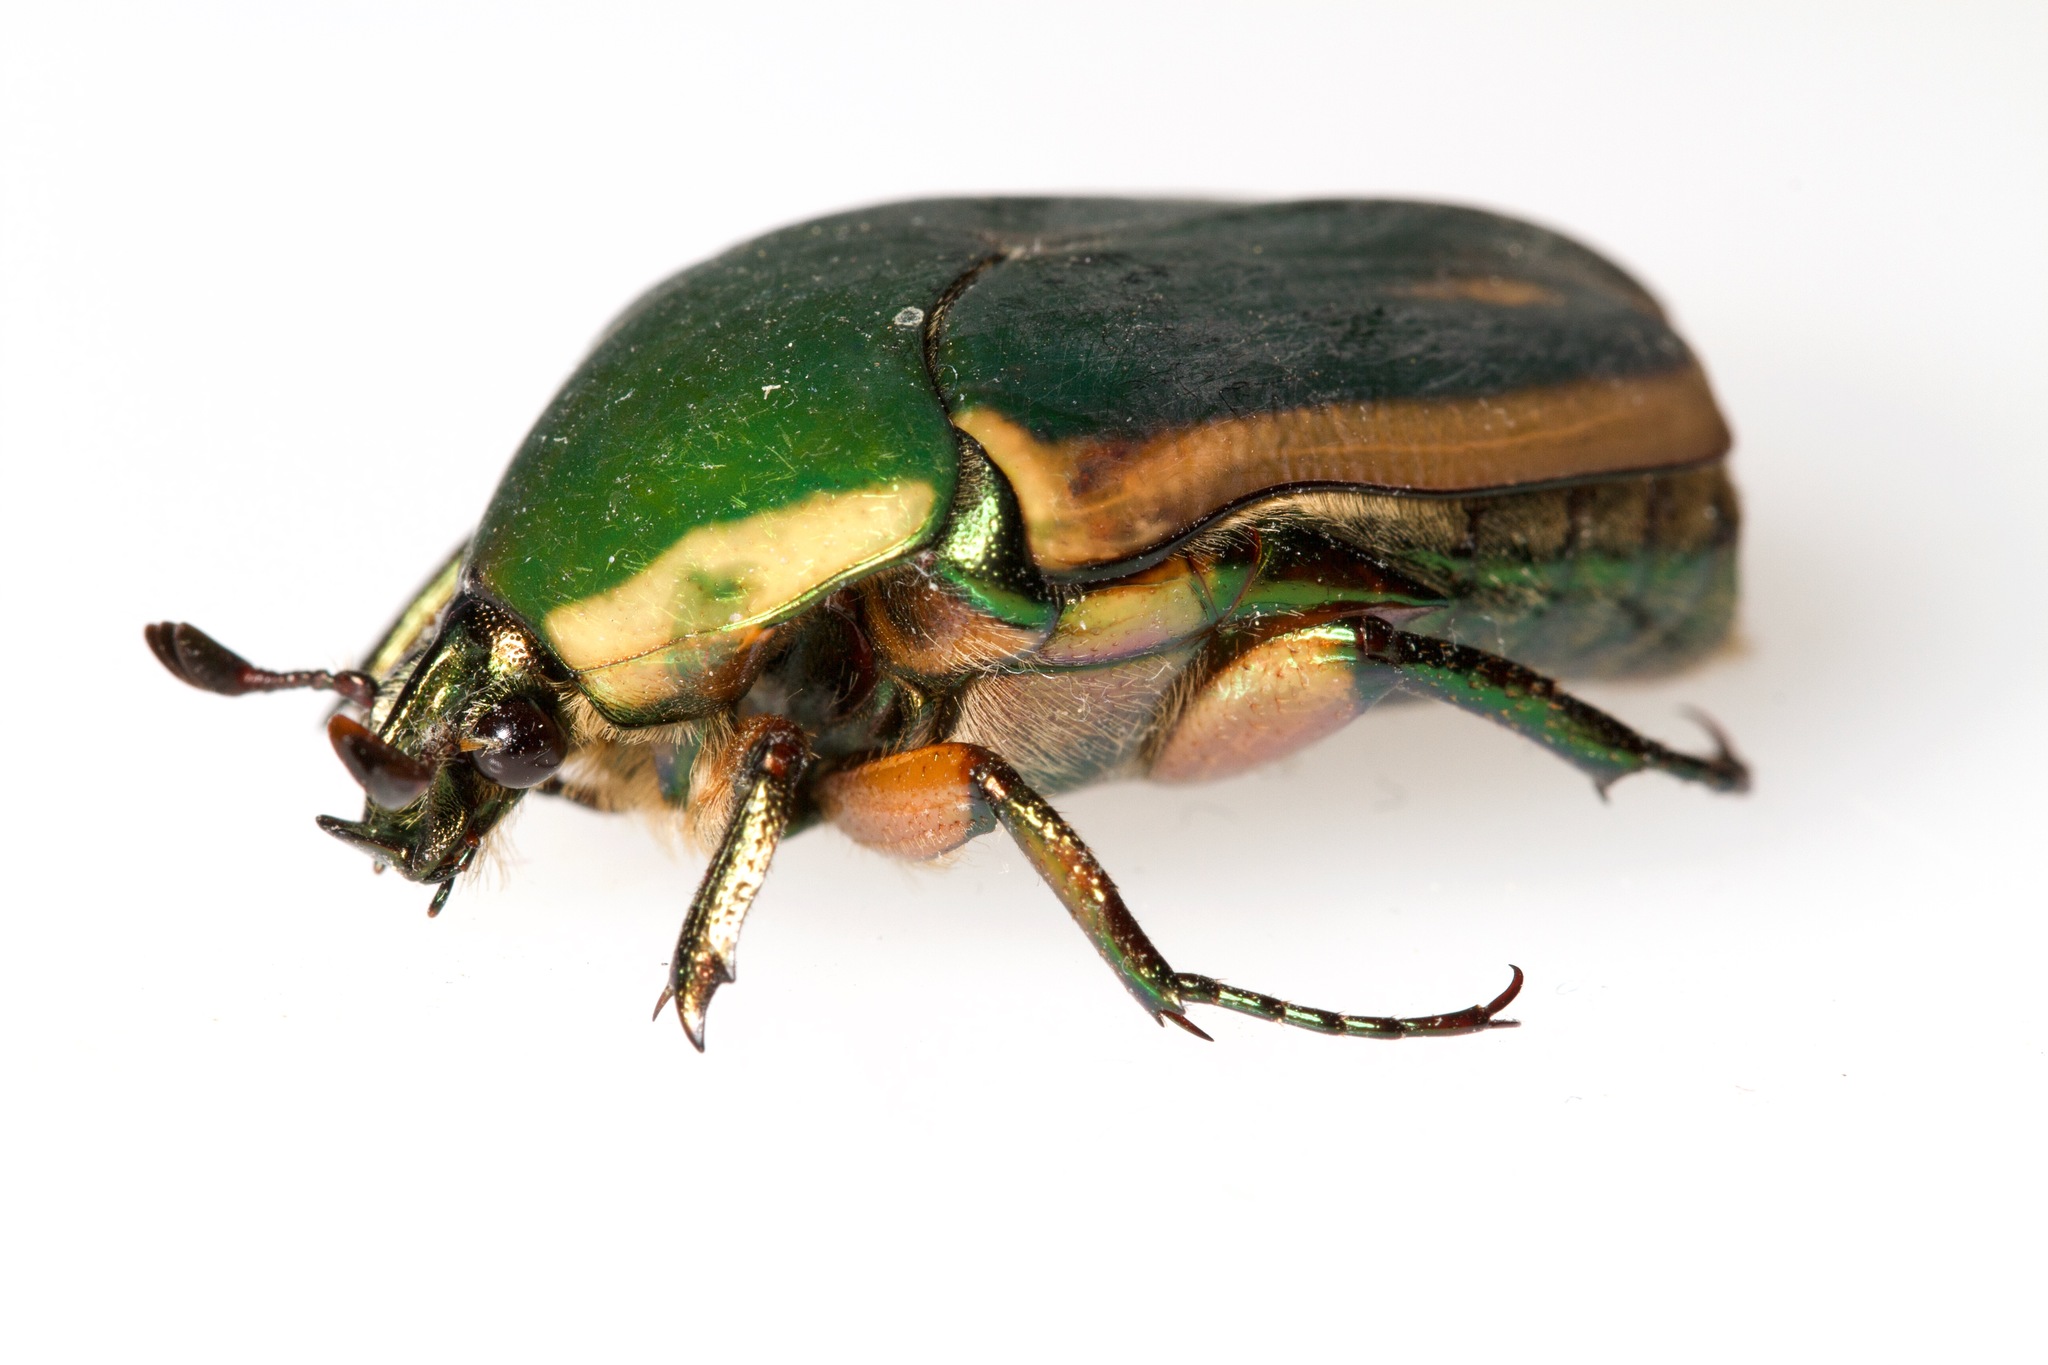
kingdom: Animalia
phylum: Arthropoda
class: Insecta
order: Coleoptera
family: Scarabaeidae
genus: Cotinis
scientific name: Cotinis nitida
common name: Common green june beetle
